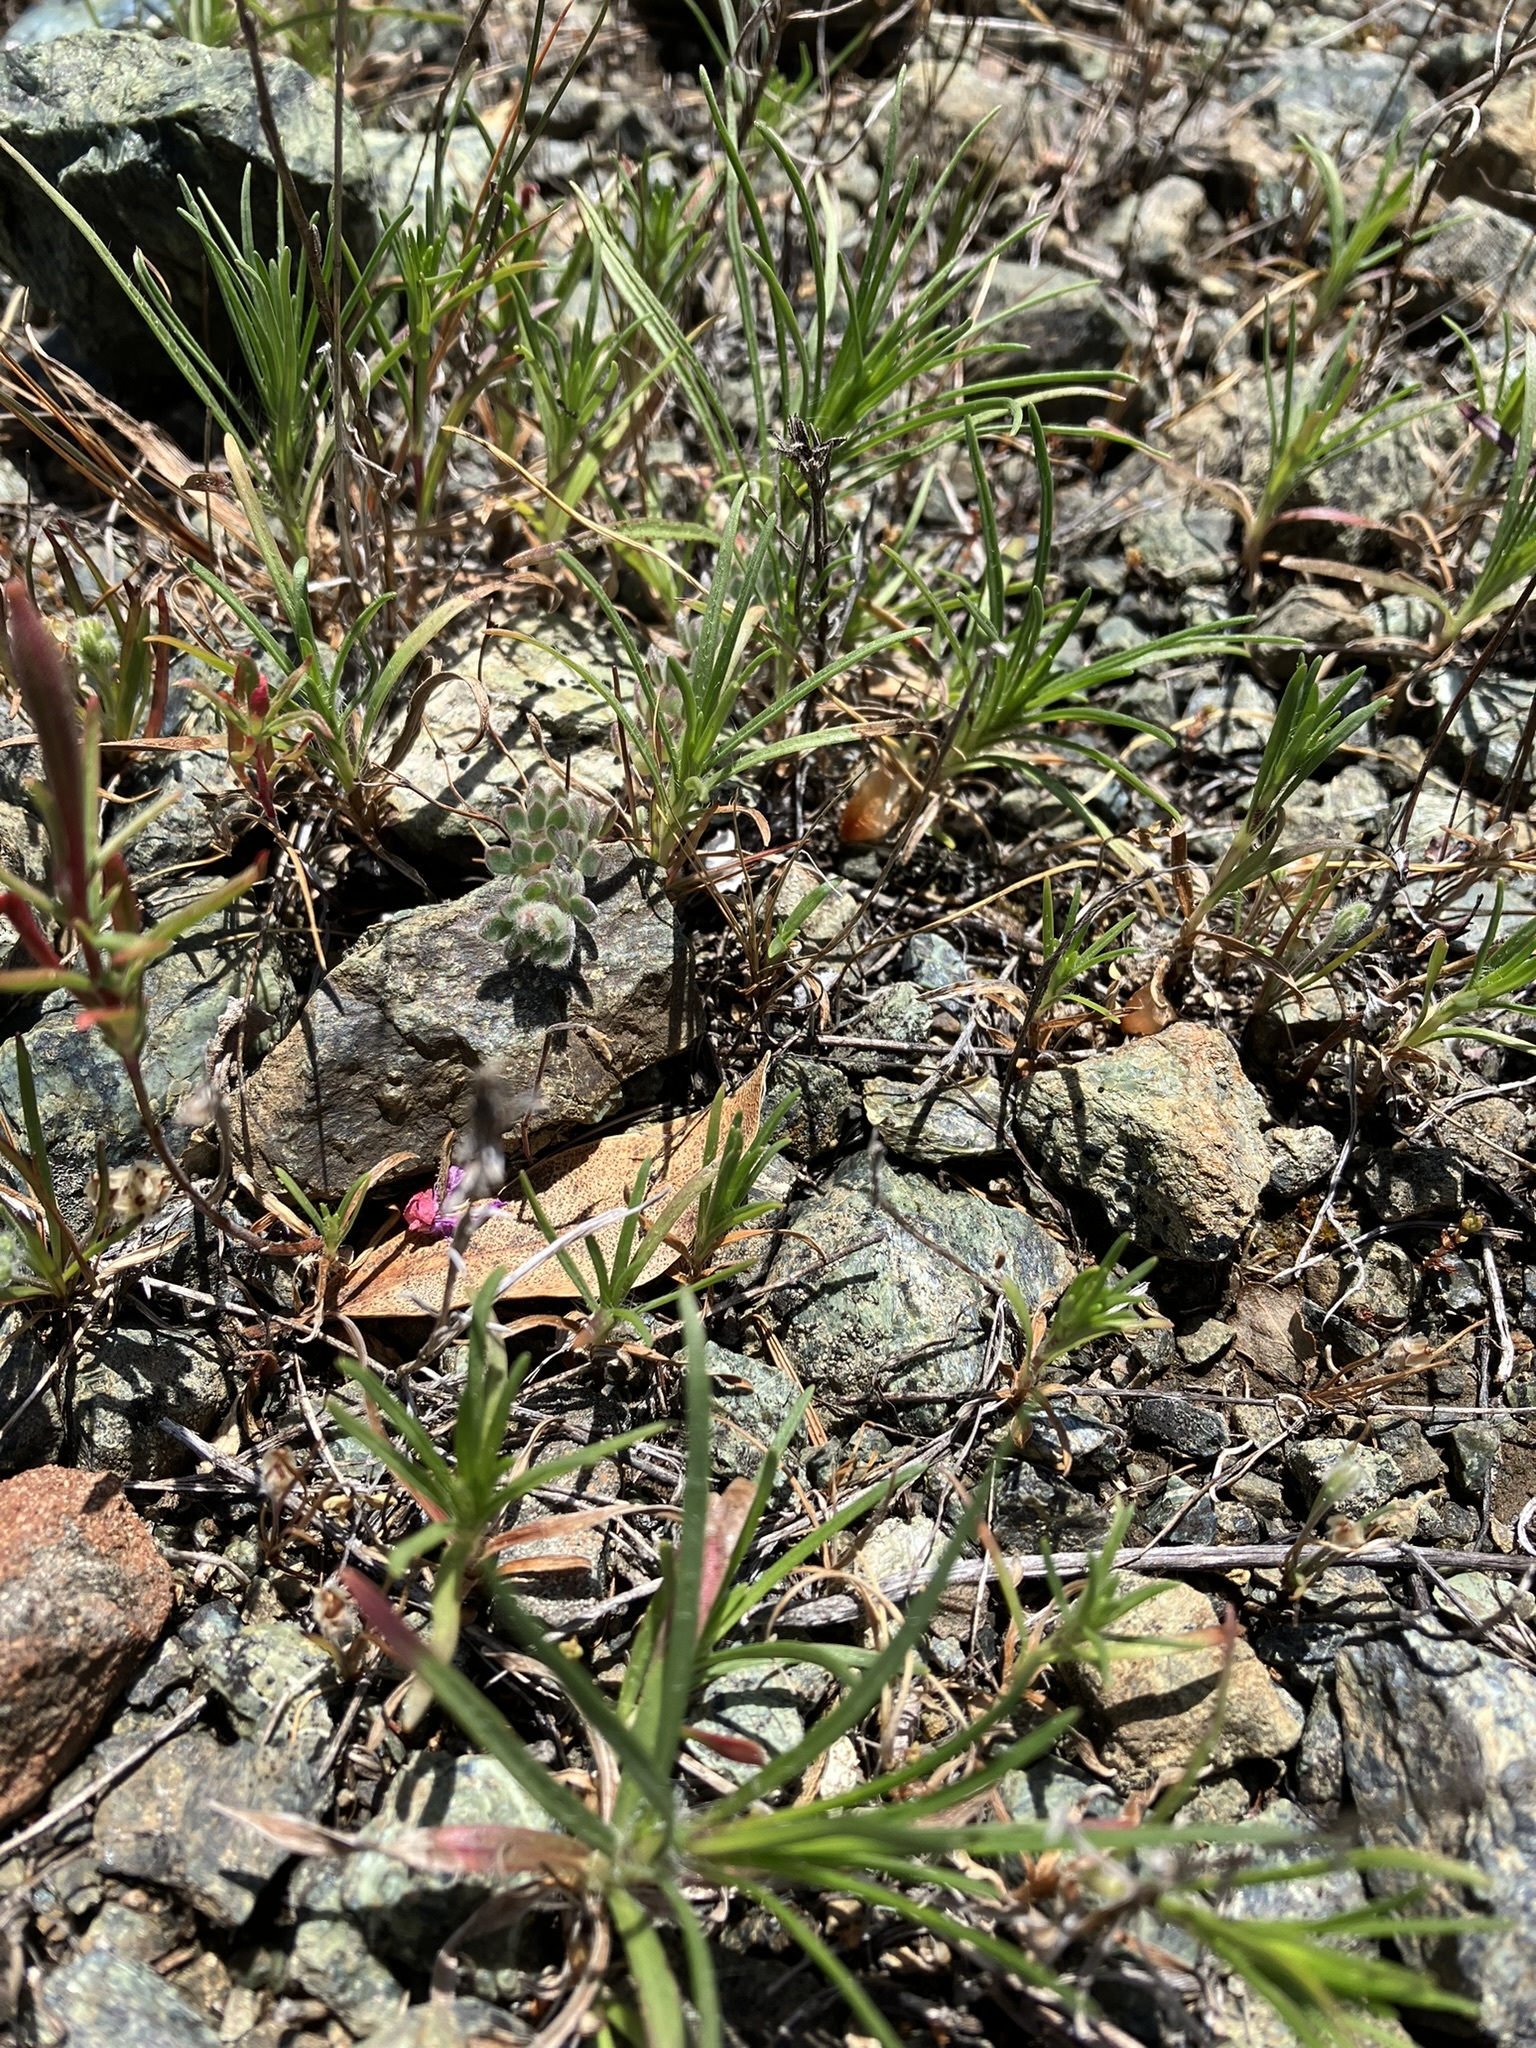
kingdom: Plantae
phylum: Tracheophyta
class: Magnoliopsida
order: Asterales
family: Asteraceae
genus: Erigeron
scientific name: Erigeron greenei
